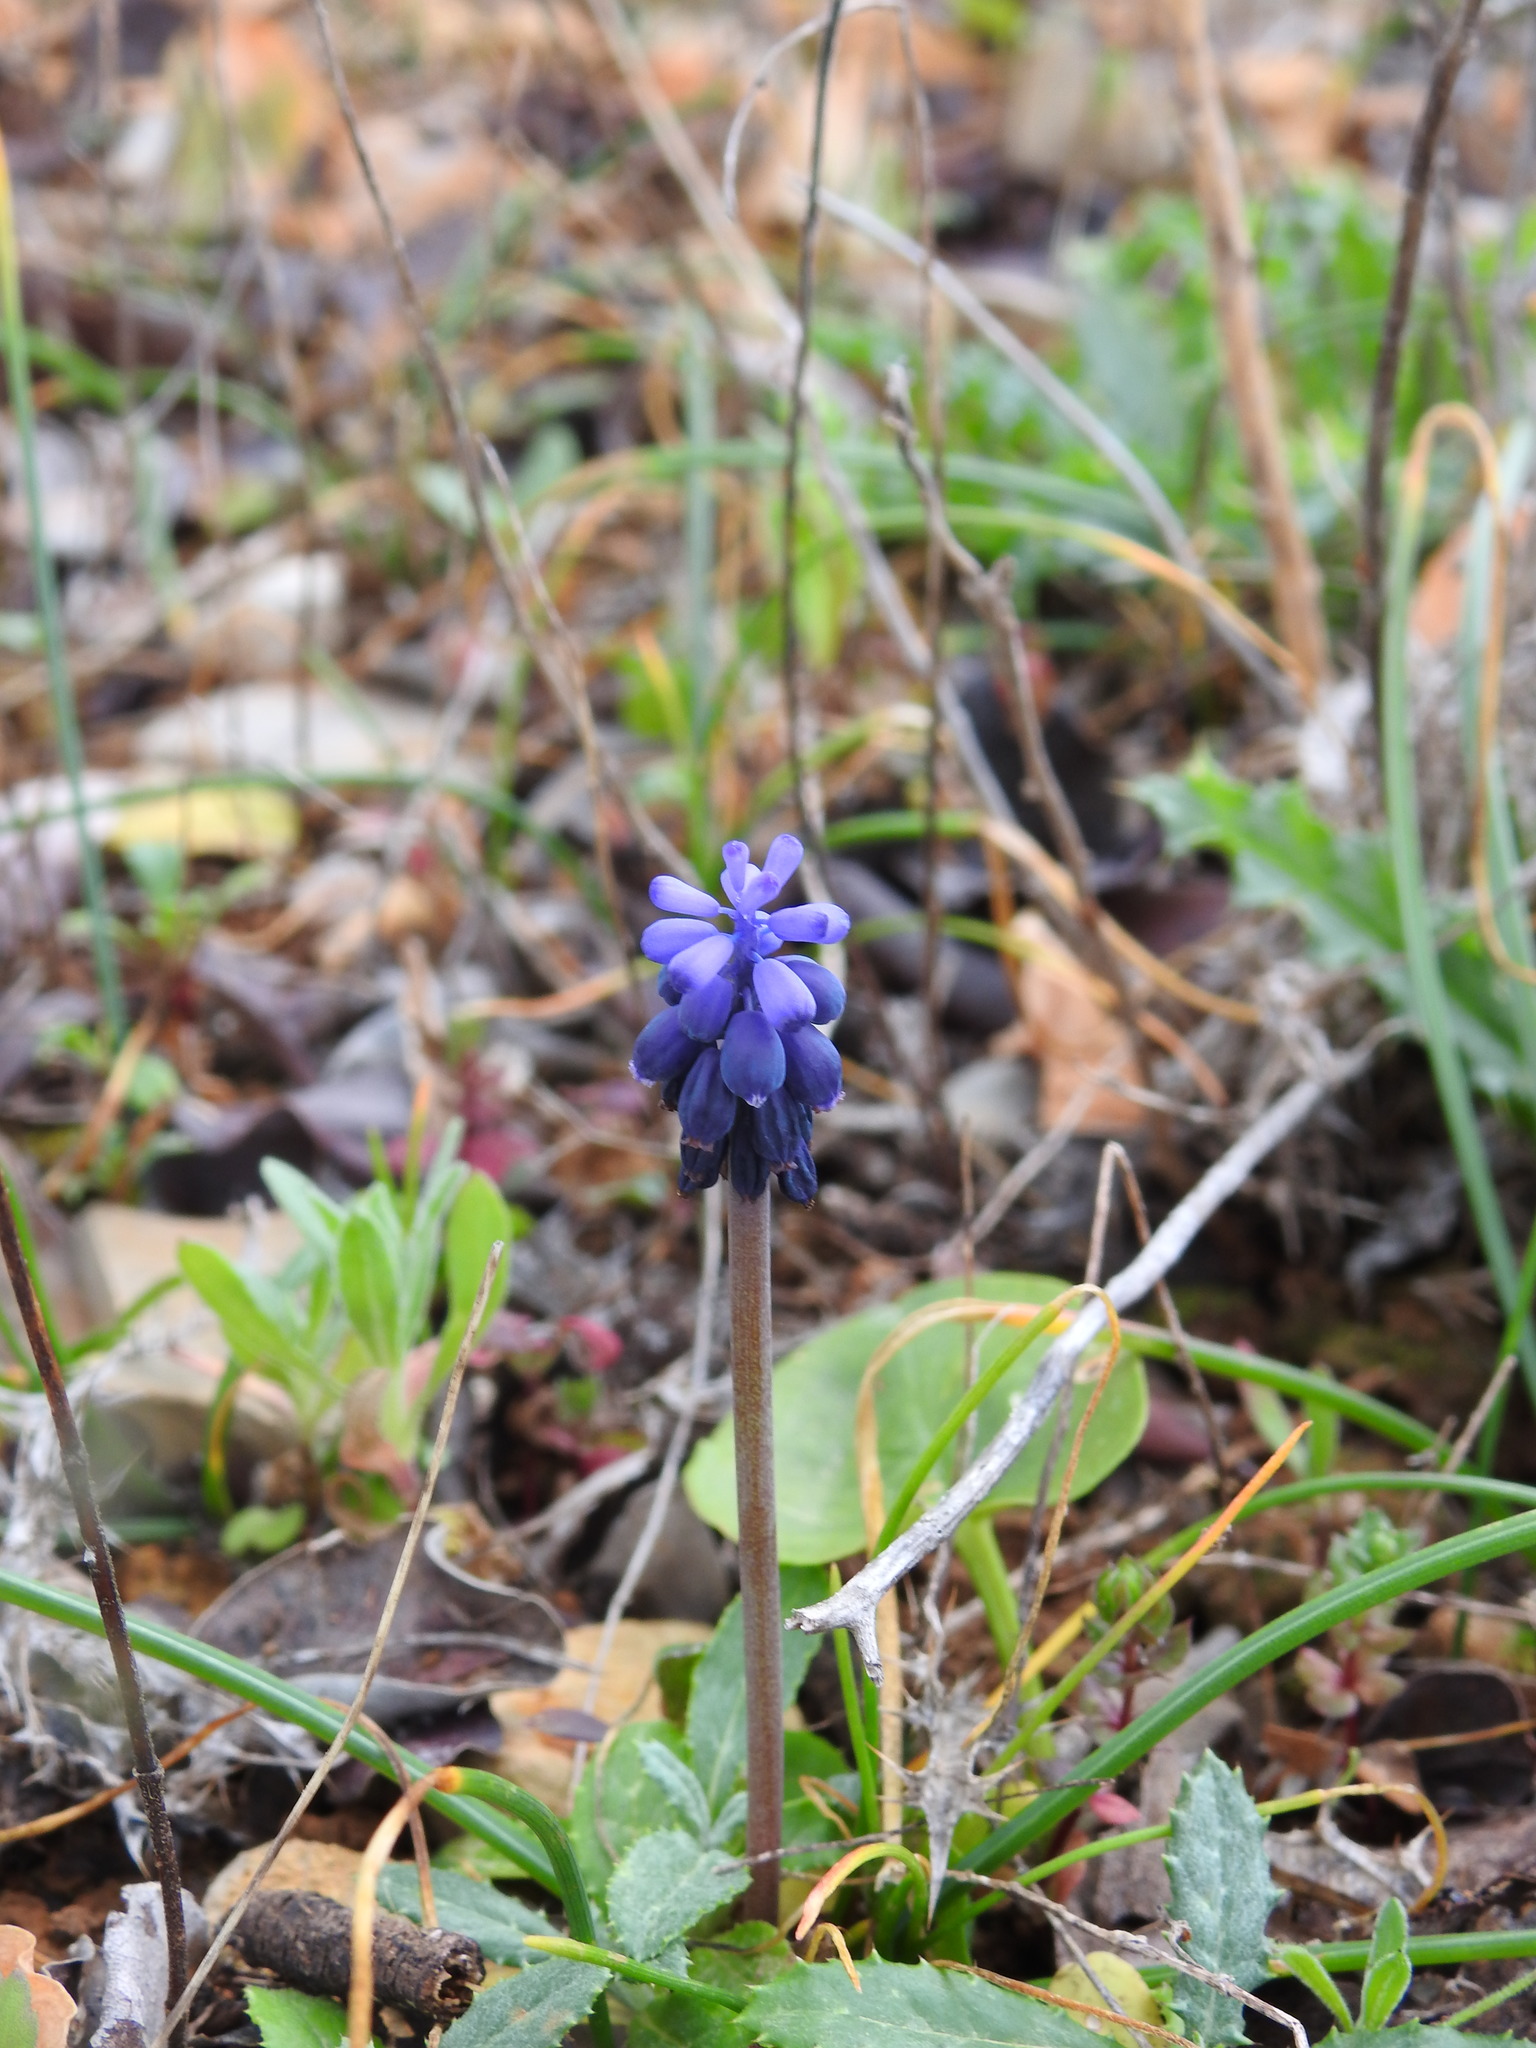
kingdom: Plantae
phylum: Tracheophyta
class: Liliopsida
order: Asparagales
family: Asparagaceae
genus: Muscari
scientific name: Muscari neglectum
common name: Grape-hyacinth
